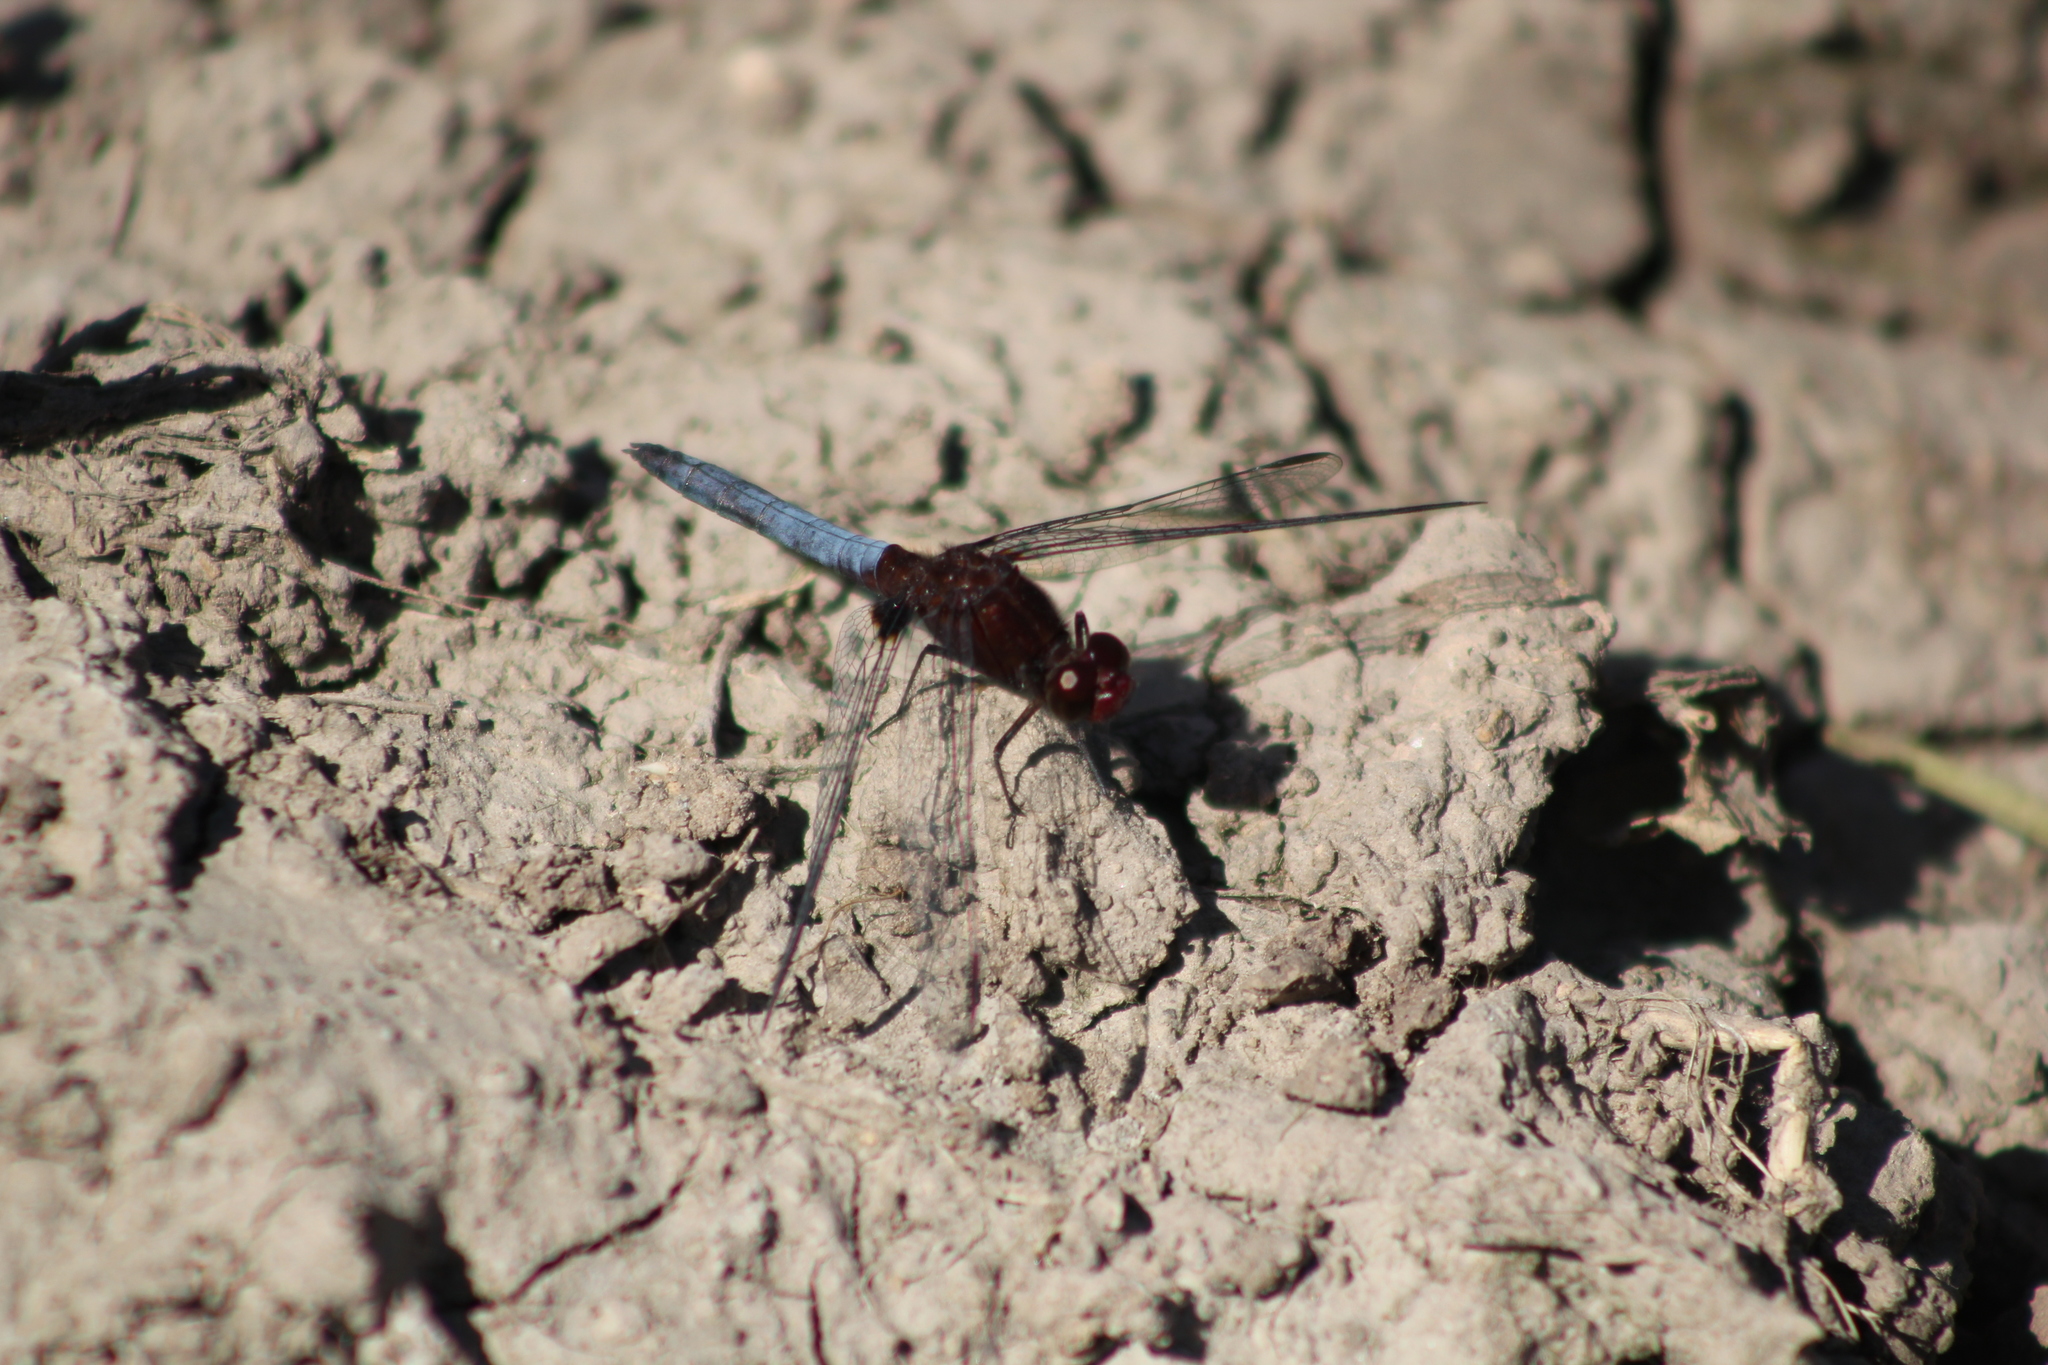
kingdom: Animalia
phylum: Arthropoda
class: Insecta
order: Odonata
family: Libellulidae
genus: Erythrodiplax
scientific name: Erythrodiplax melanorubra
